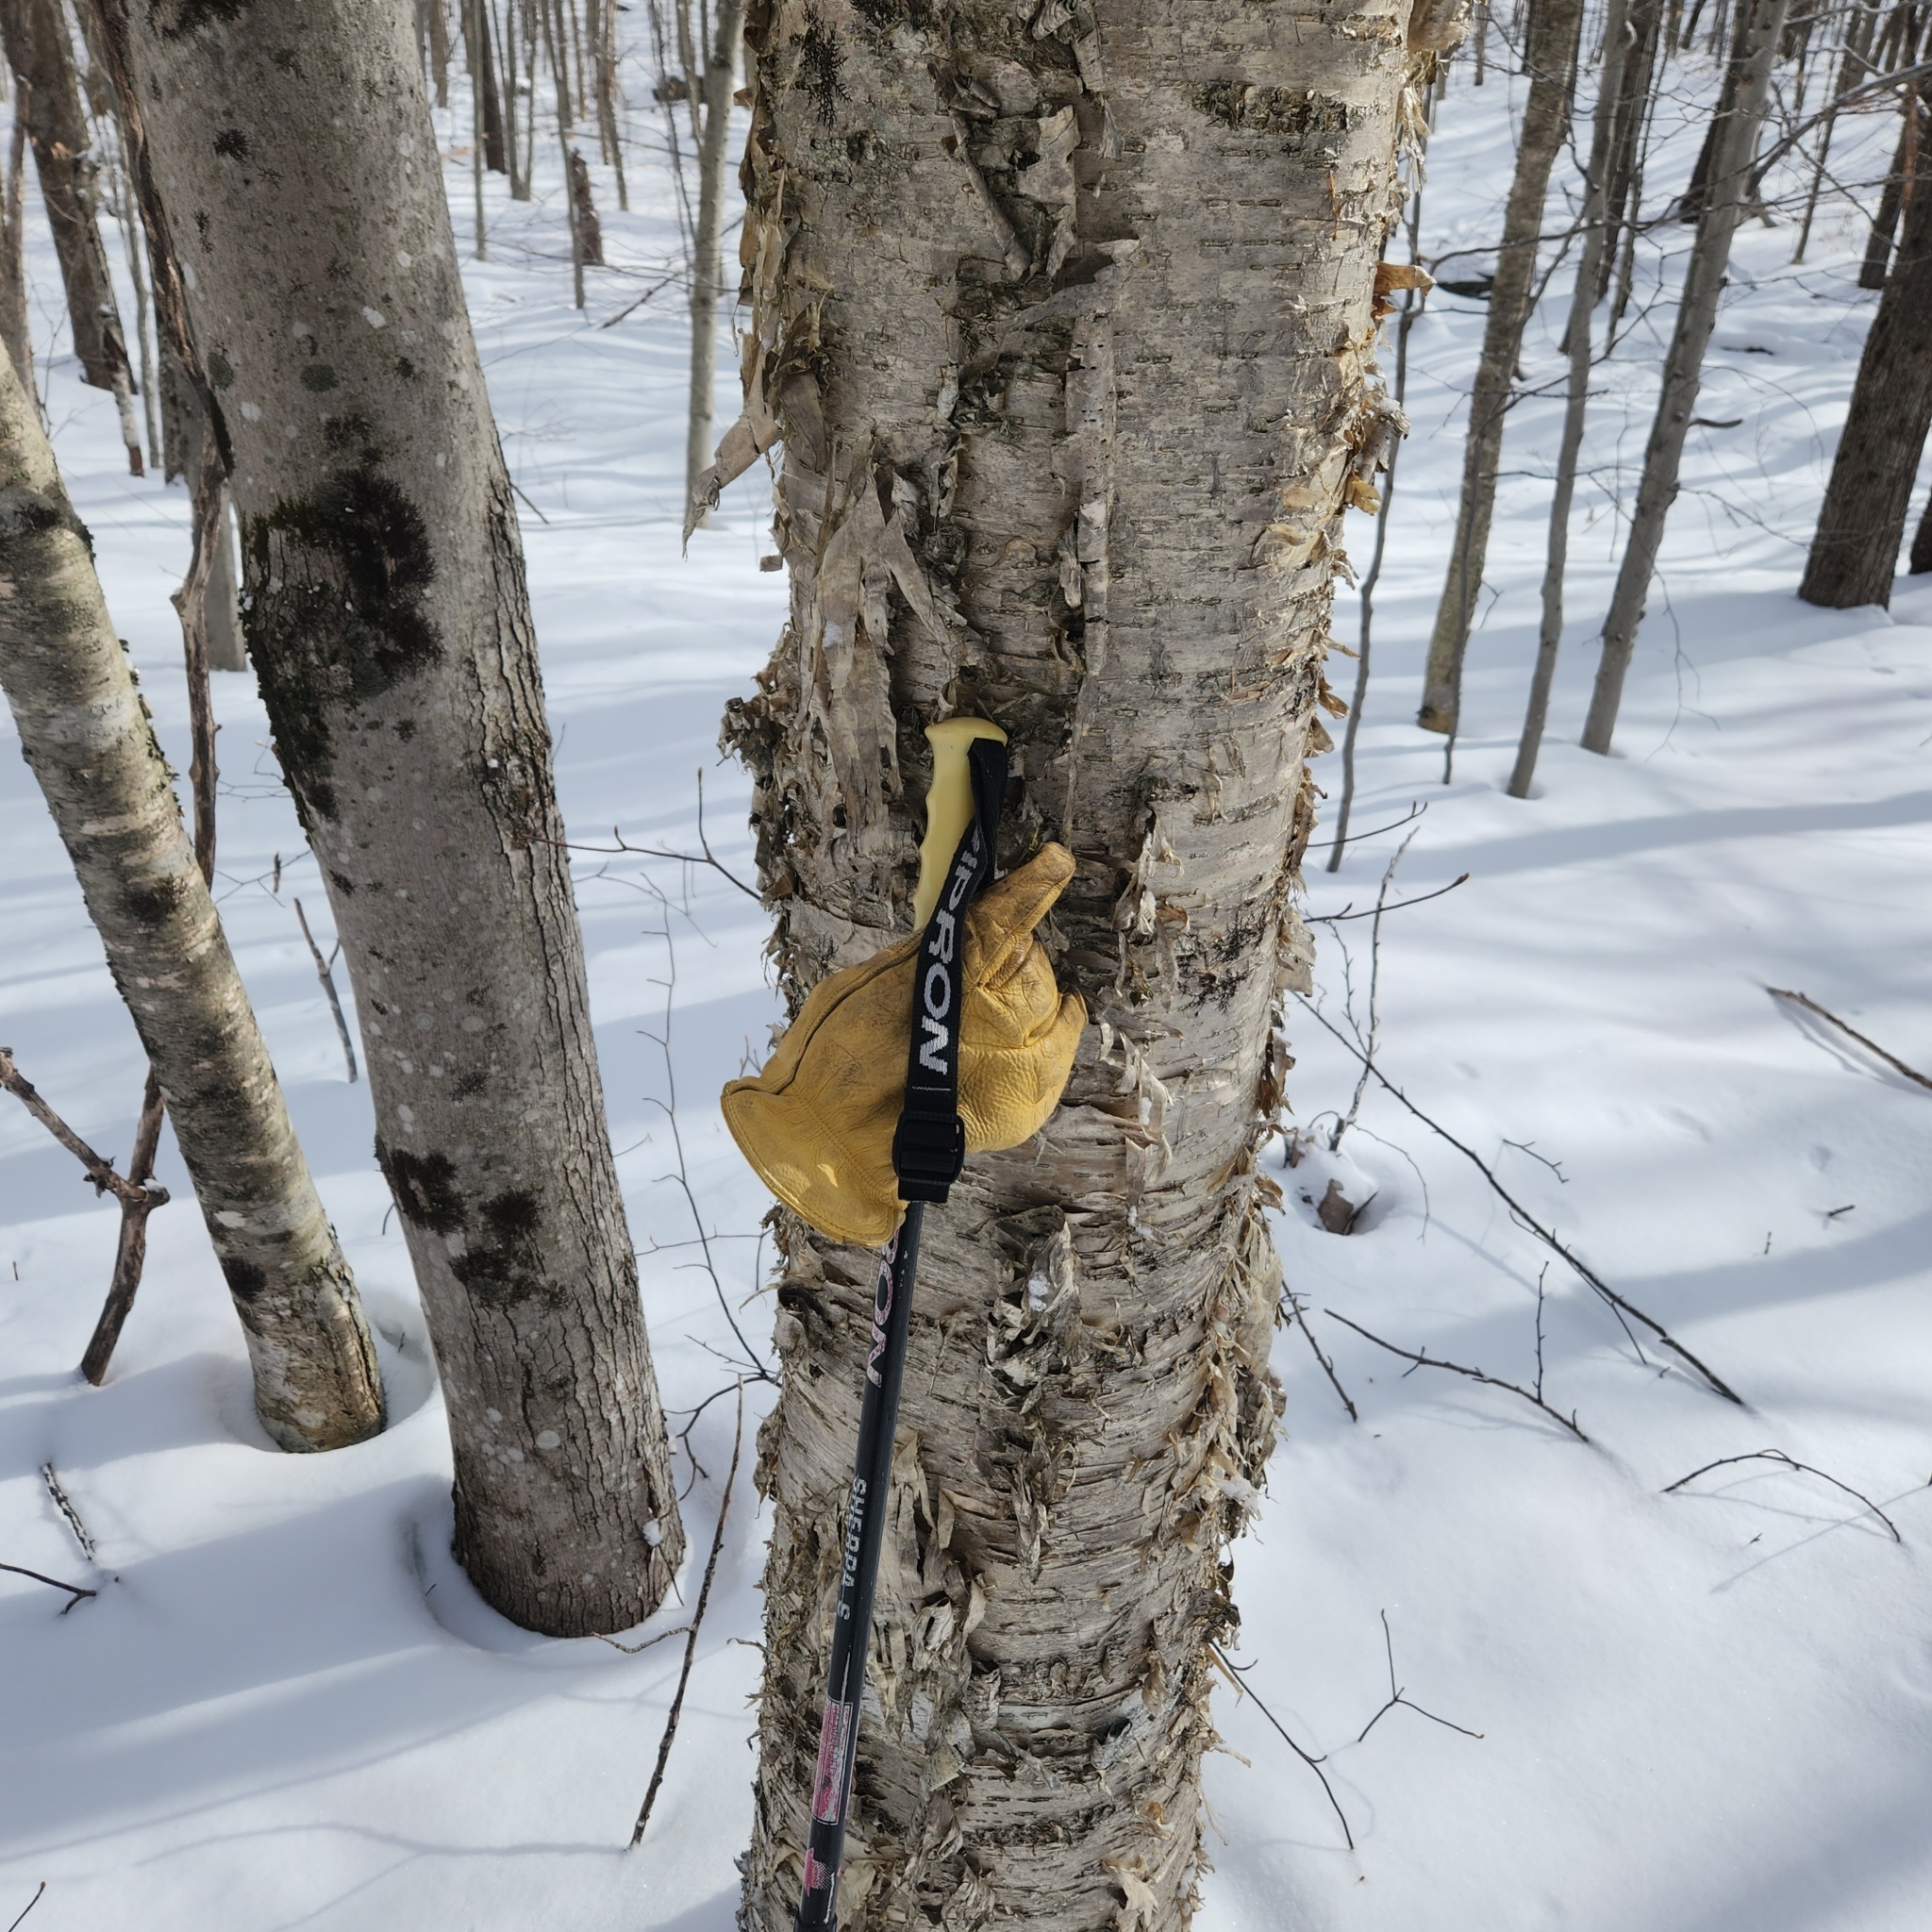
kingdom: Plantae
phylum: Tracheophyta
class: Magnoliopsida
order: Fagales
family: Betulaceae
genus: Betula
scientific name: Betula alleghaniensis
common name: Yellow birch
